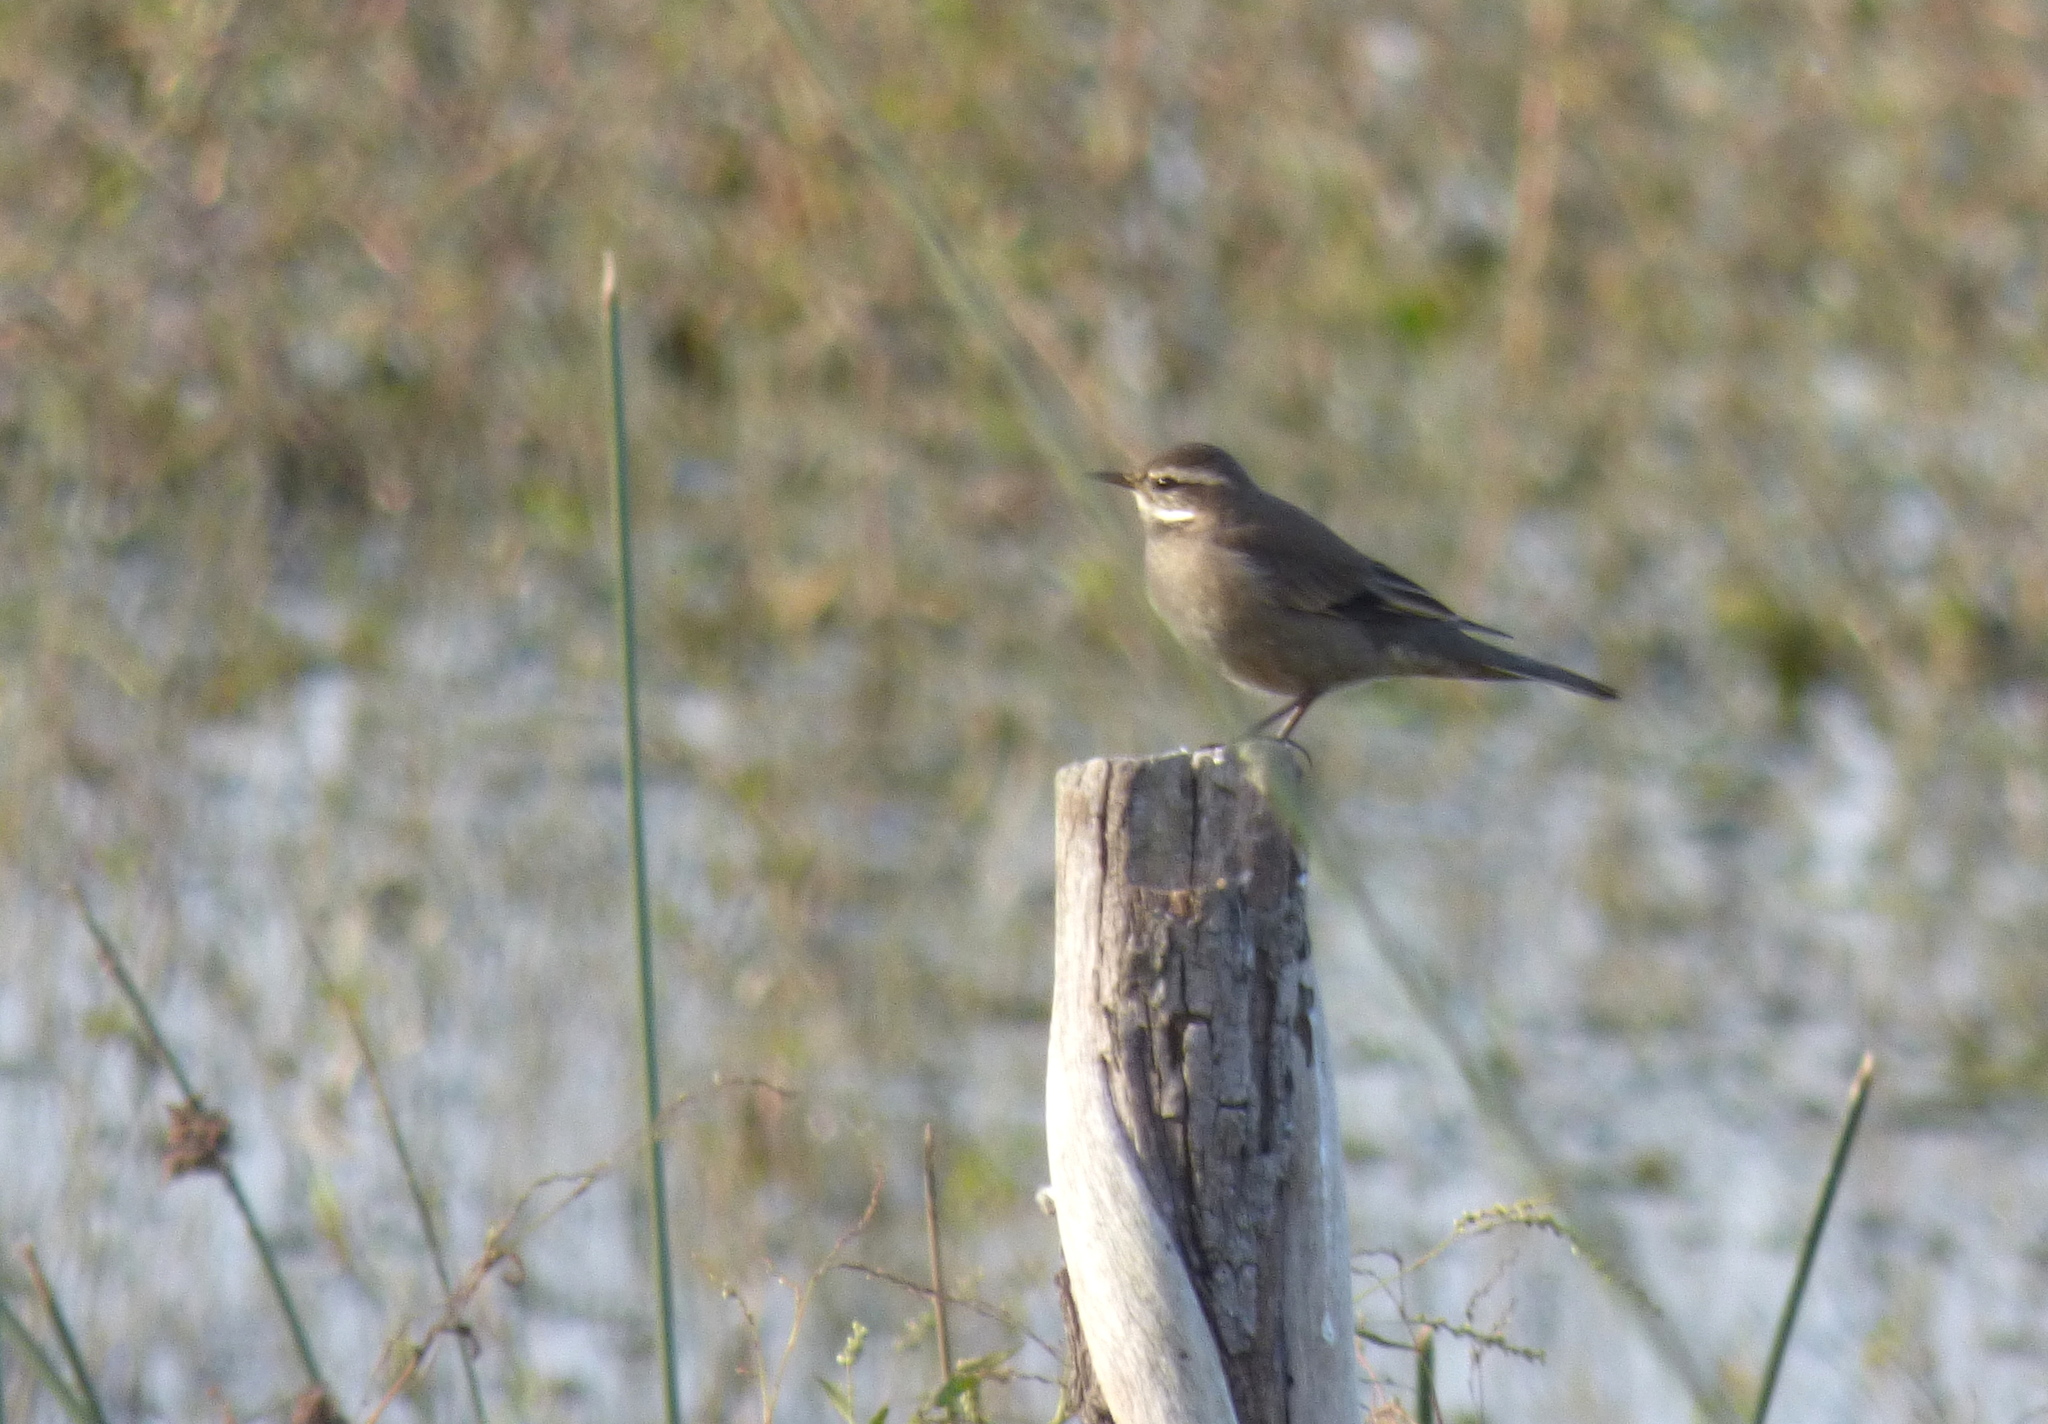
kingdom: Animalia
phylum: Chordata
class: Aves
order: Passeriformes
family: Furnariidae
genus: Cinclodes
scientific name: Cinclodes fuscus
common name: Buff-winged cinclodes
